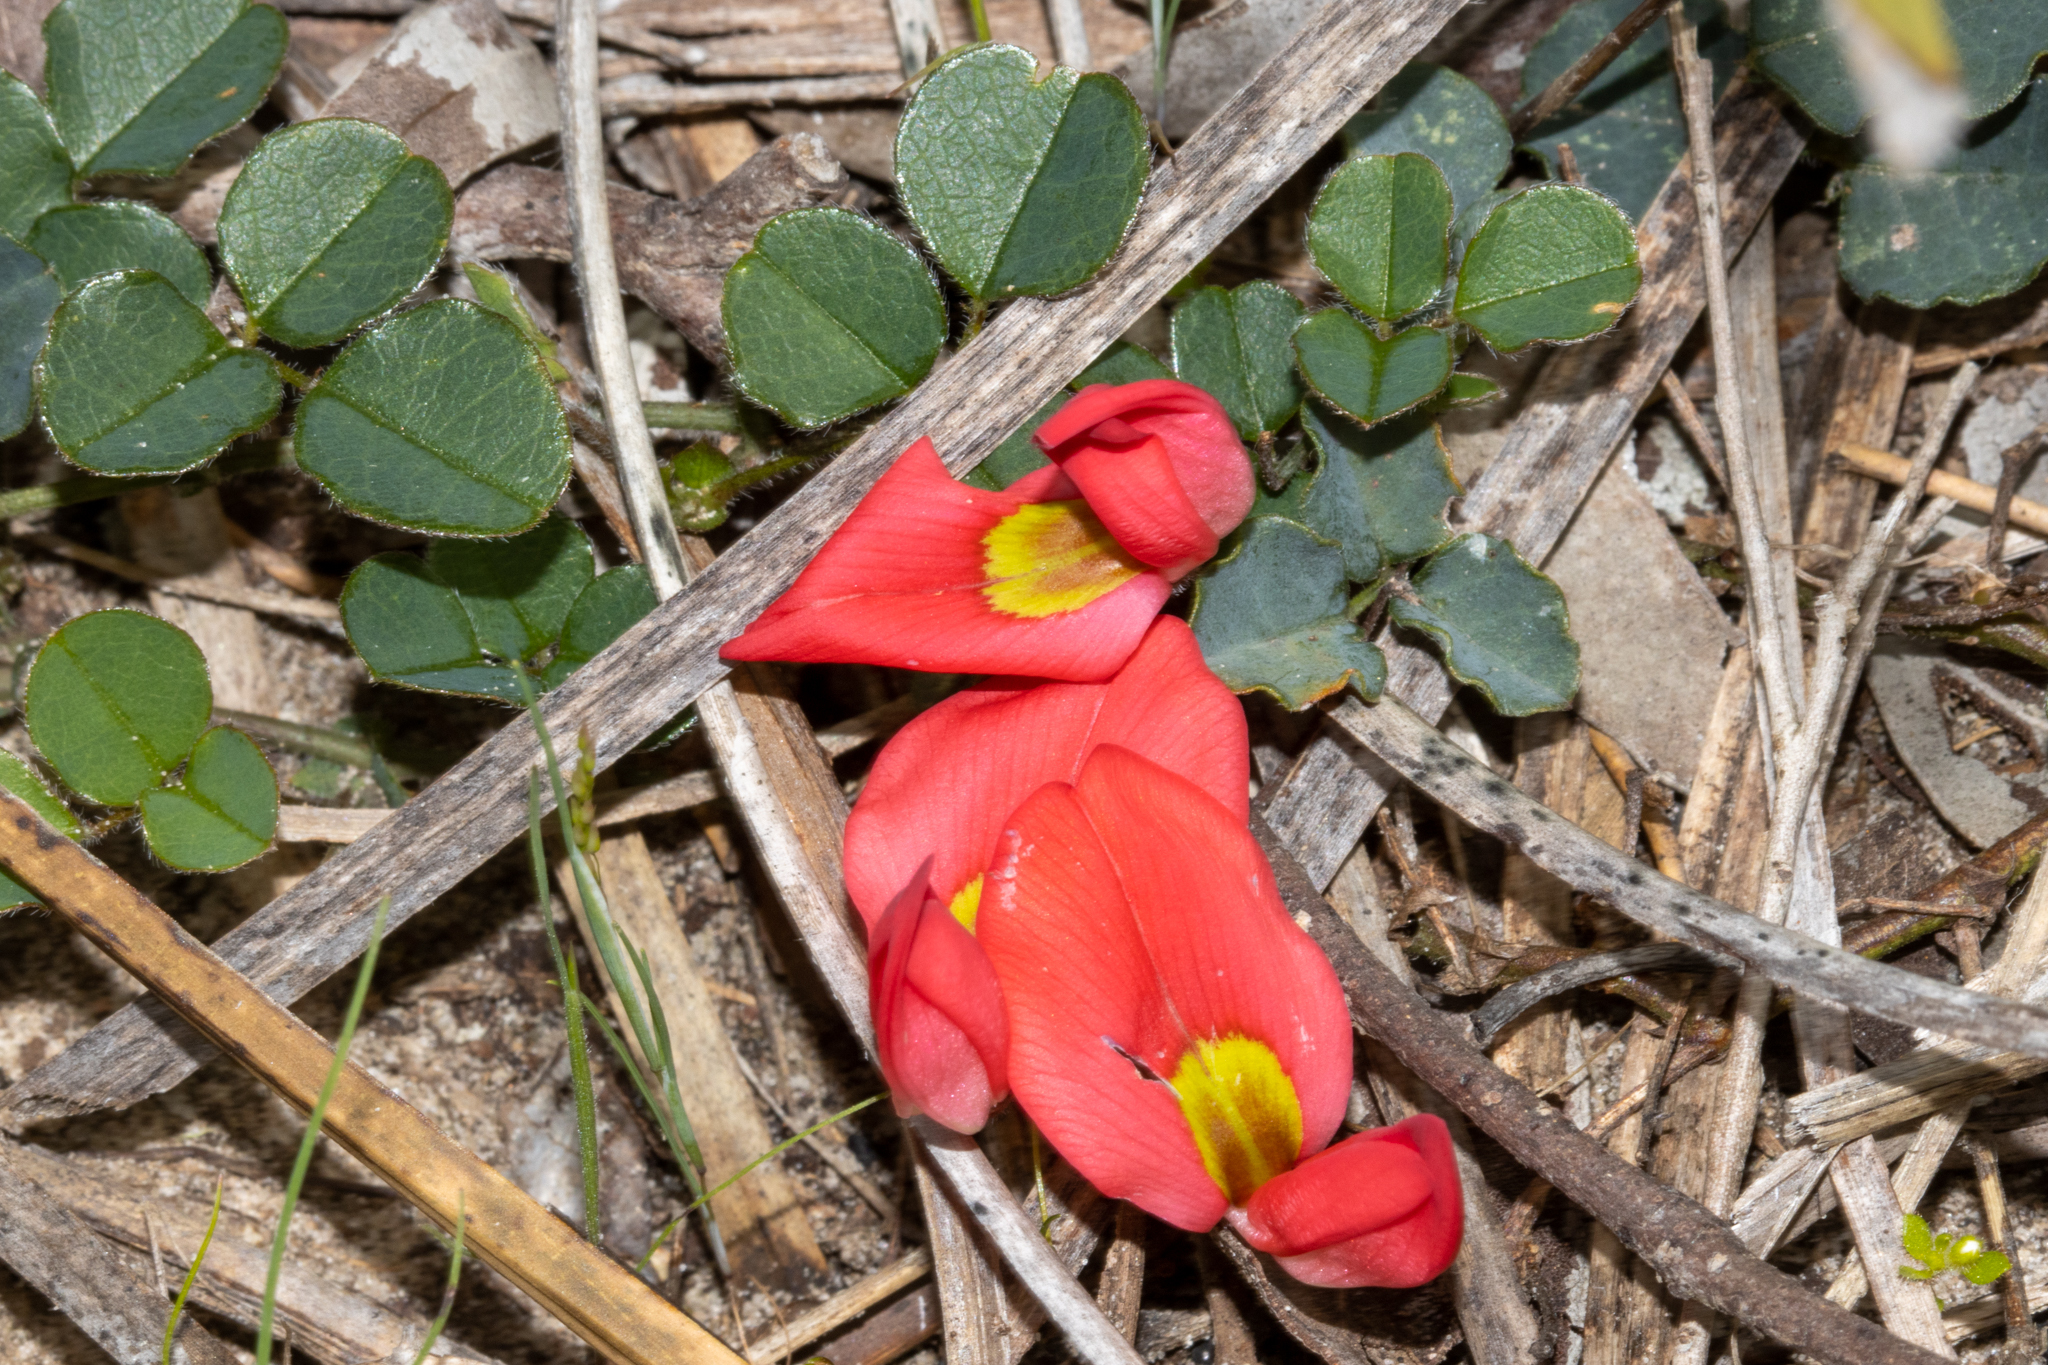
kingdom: Plantae
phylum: Tracheophyta
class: Magnoliopsida
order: Fabales
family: Fabaceae
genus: Kennedia
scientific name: Kennedia prostrata
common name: Running-postman
